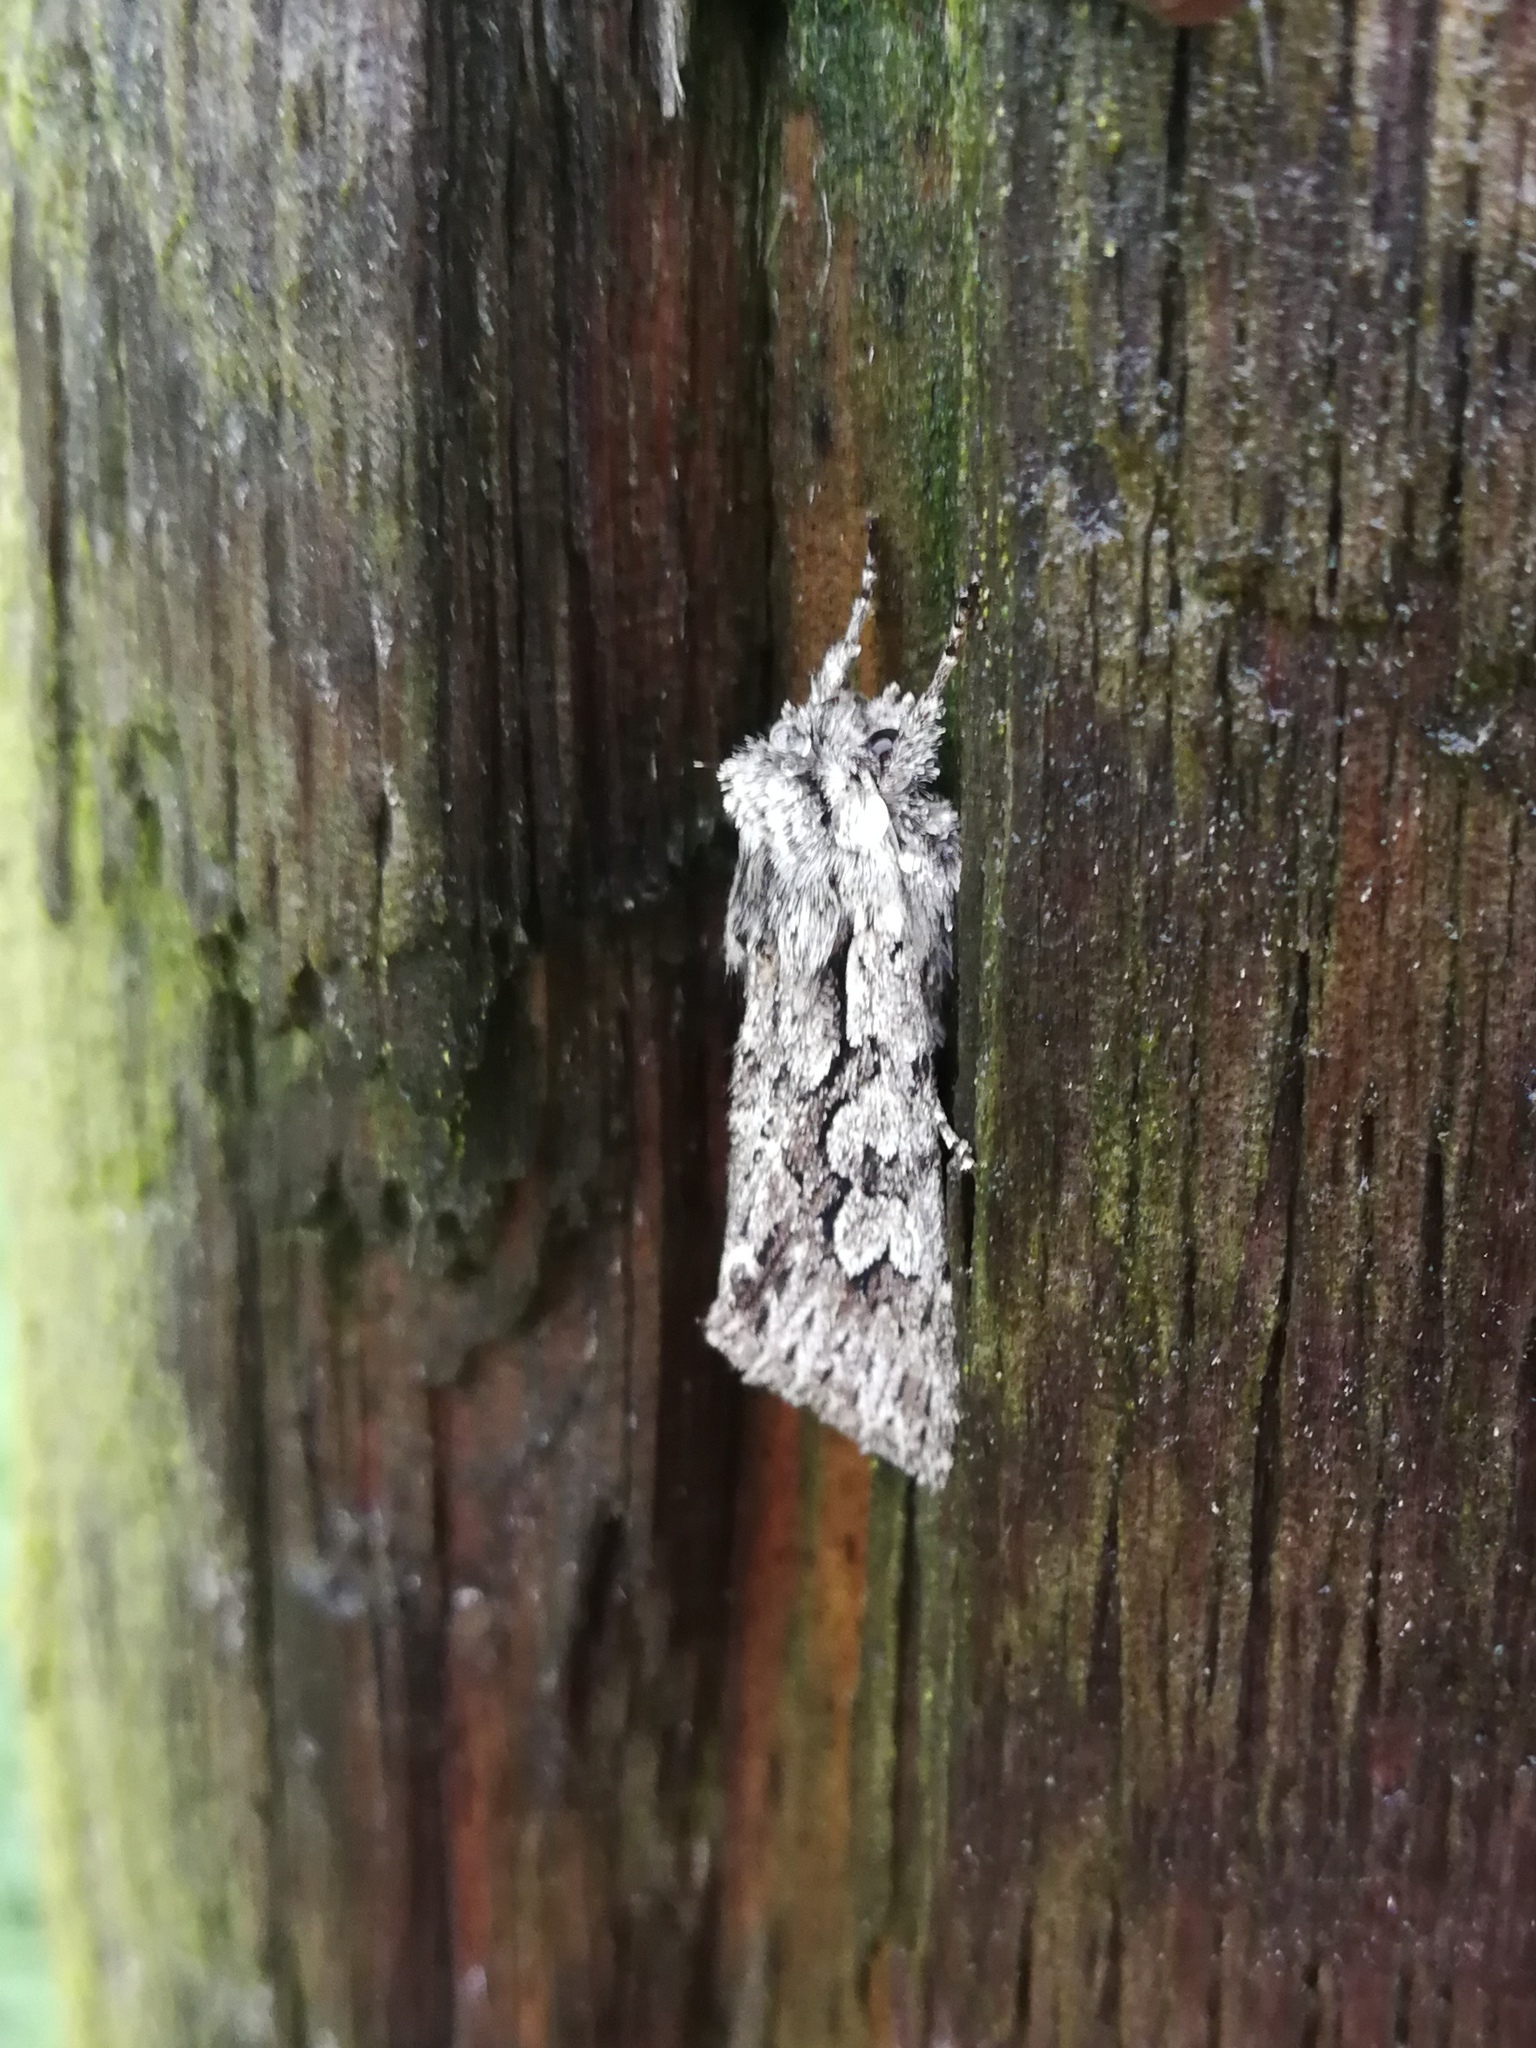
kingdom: Animalia
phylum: Arthropoda
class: Insecta
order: Lepidoptera
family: Noctuidae
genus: Xylocampa
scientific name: Xylocampa areola
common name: Early grey
